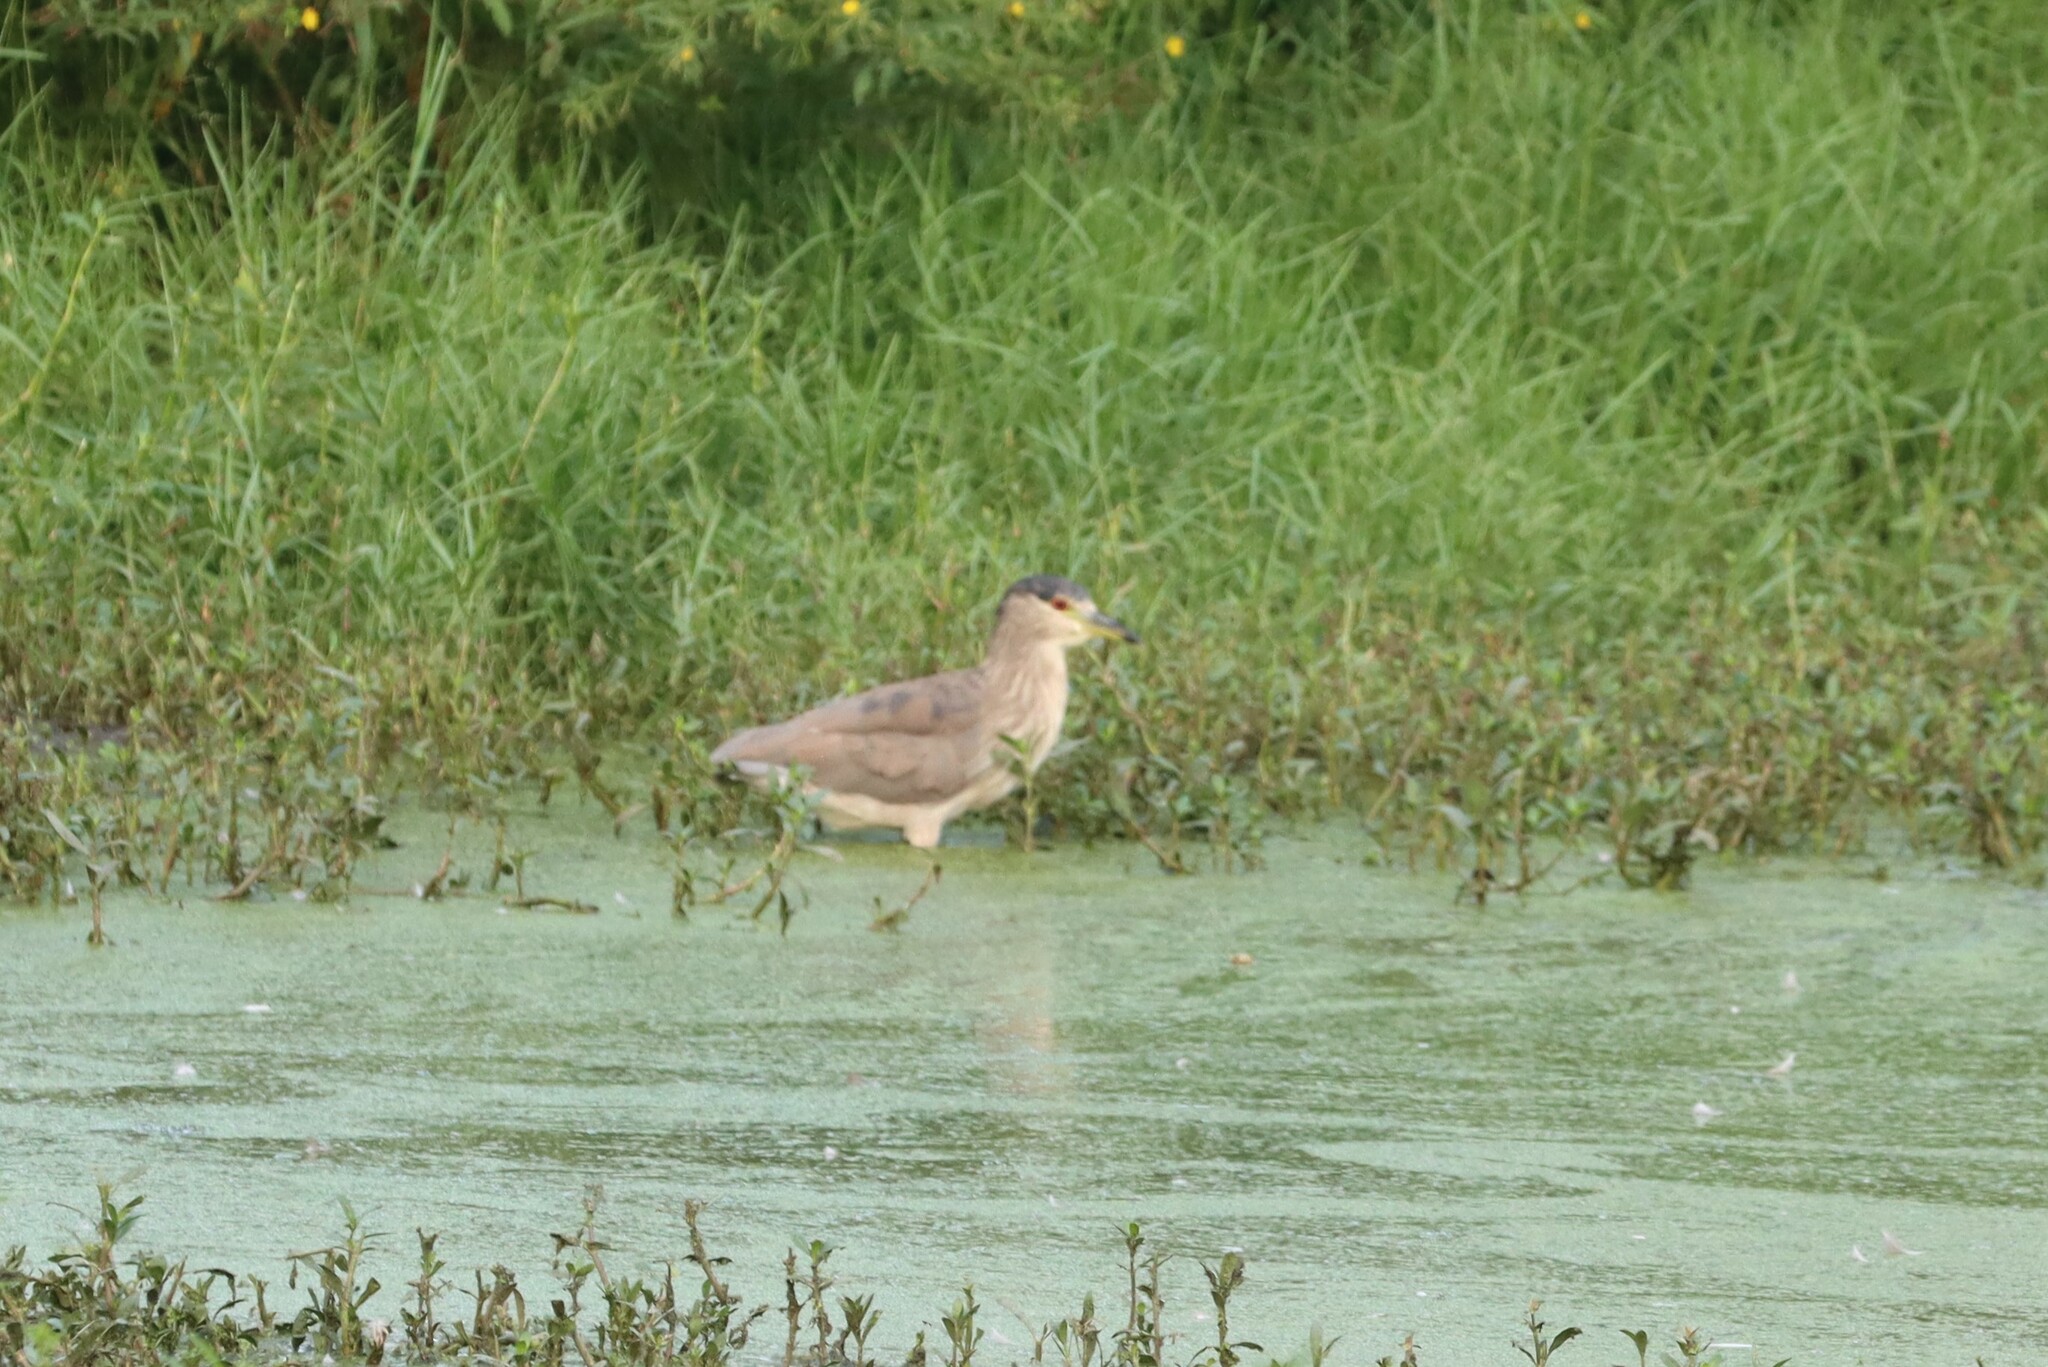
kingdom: Animalia
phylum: Chordata
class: Aves
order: Pelecaniformes
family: Ardeidae
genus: Nycticorax
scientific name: Nycticorax nycticorax
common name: Black-crowned night heron
